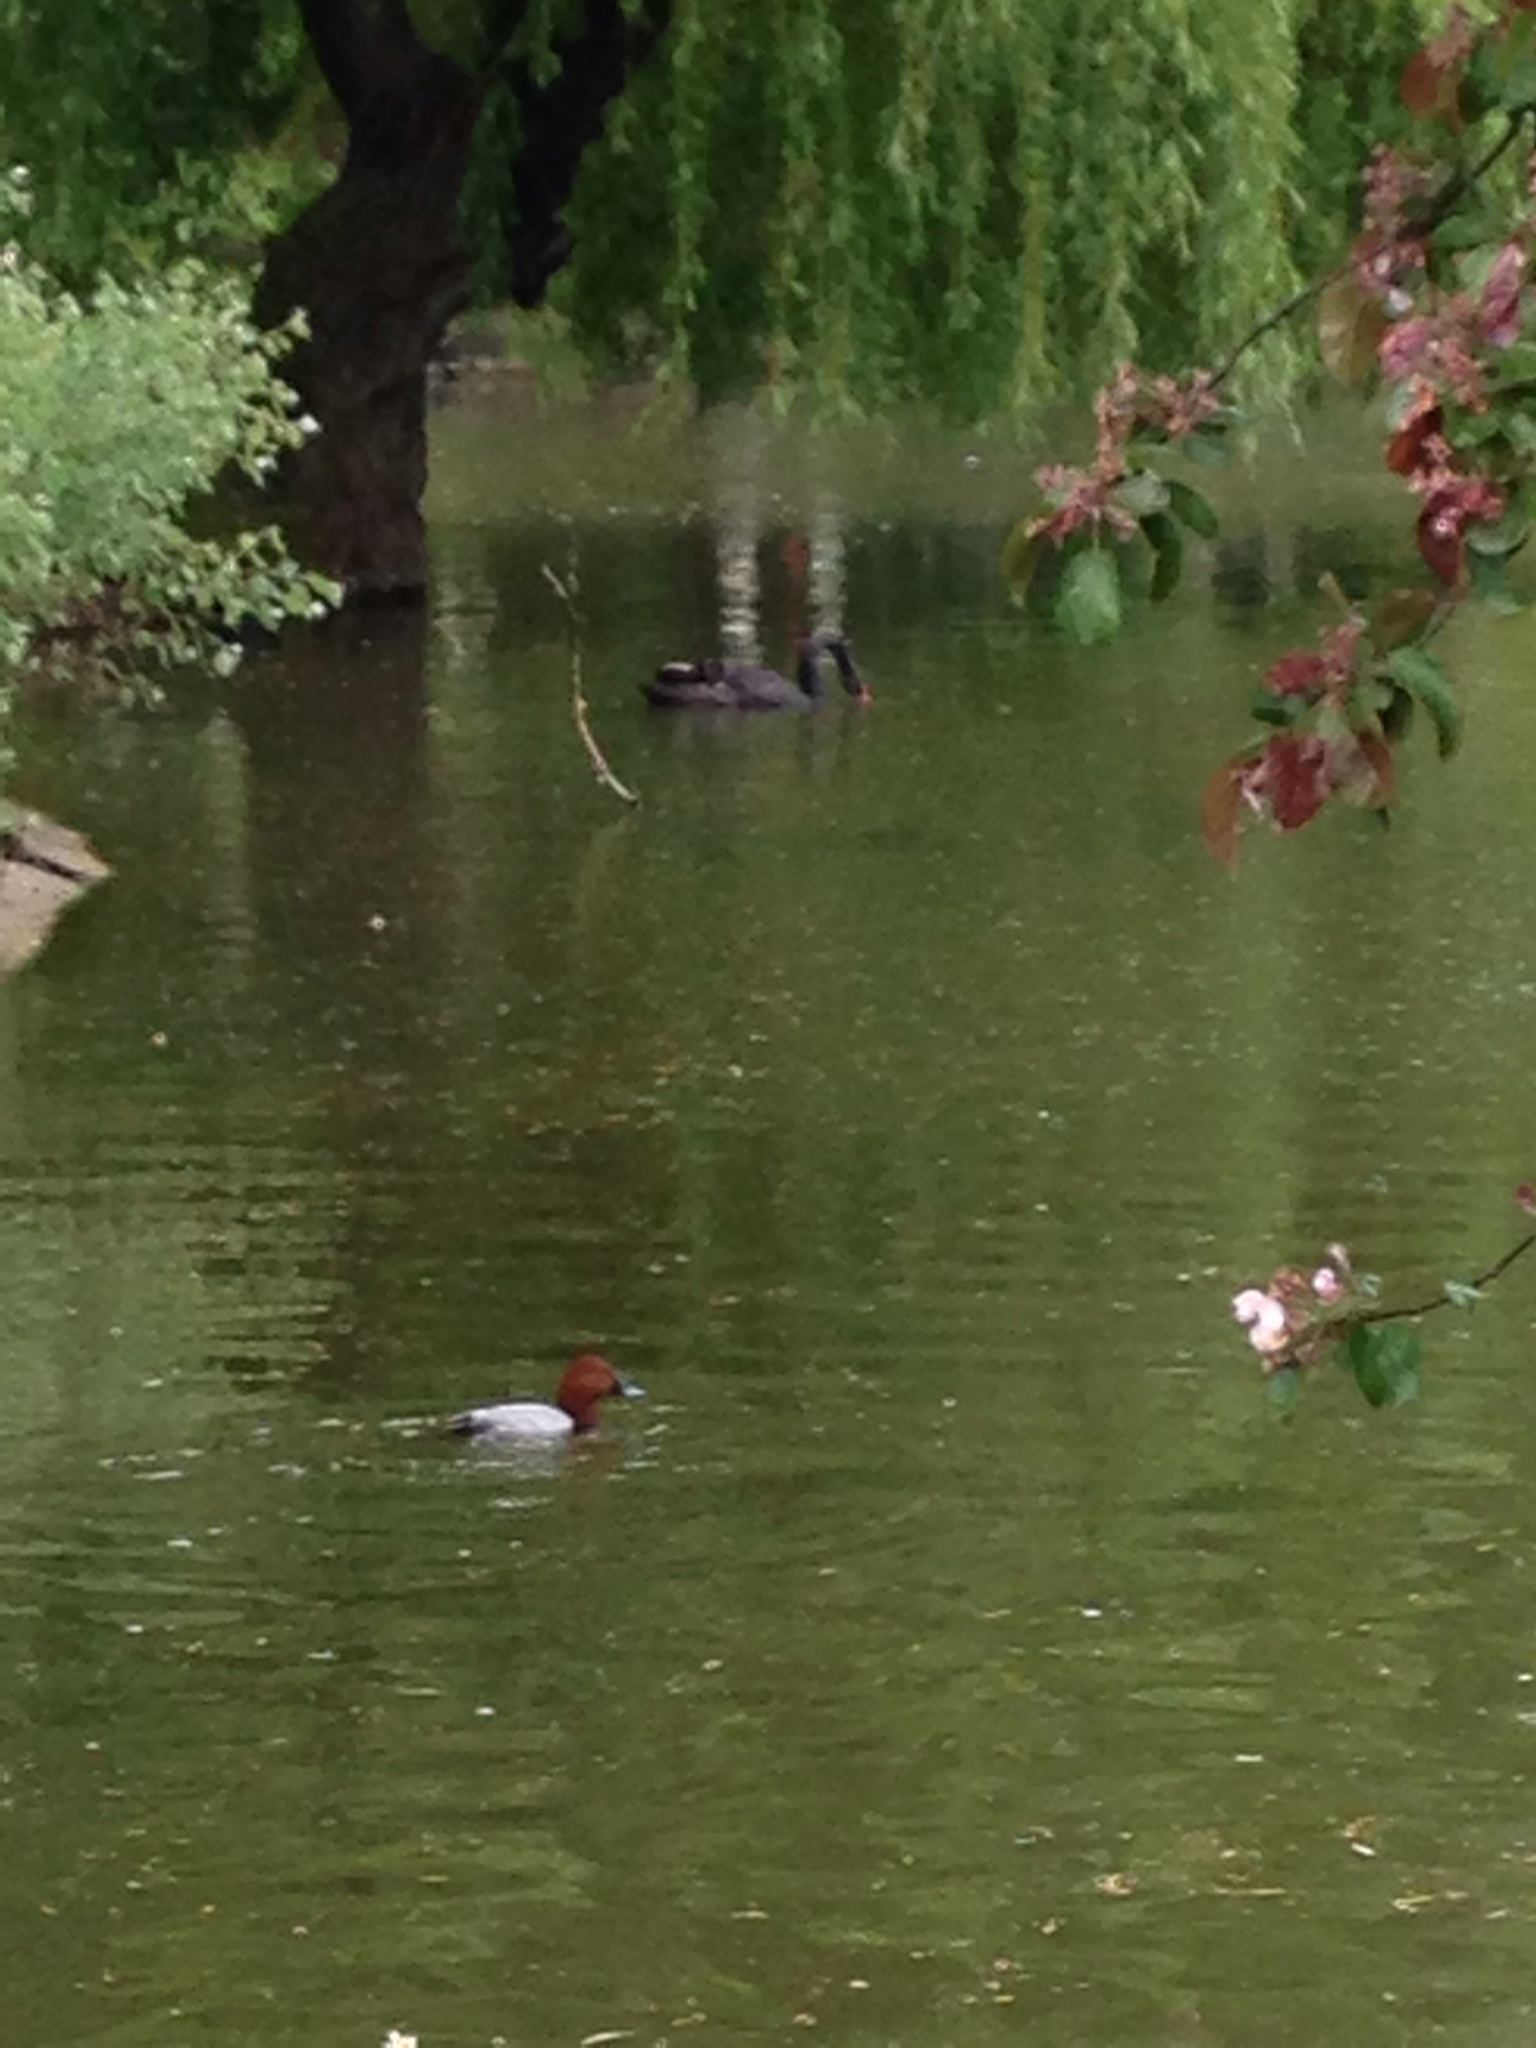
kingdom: Animalia
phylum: Chordata
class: Aves
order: Anseriformes
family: Anatidae
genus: Cygnus
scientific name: Cygnus atratus
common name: Black swan
